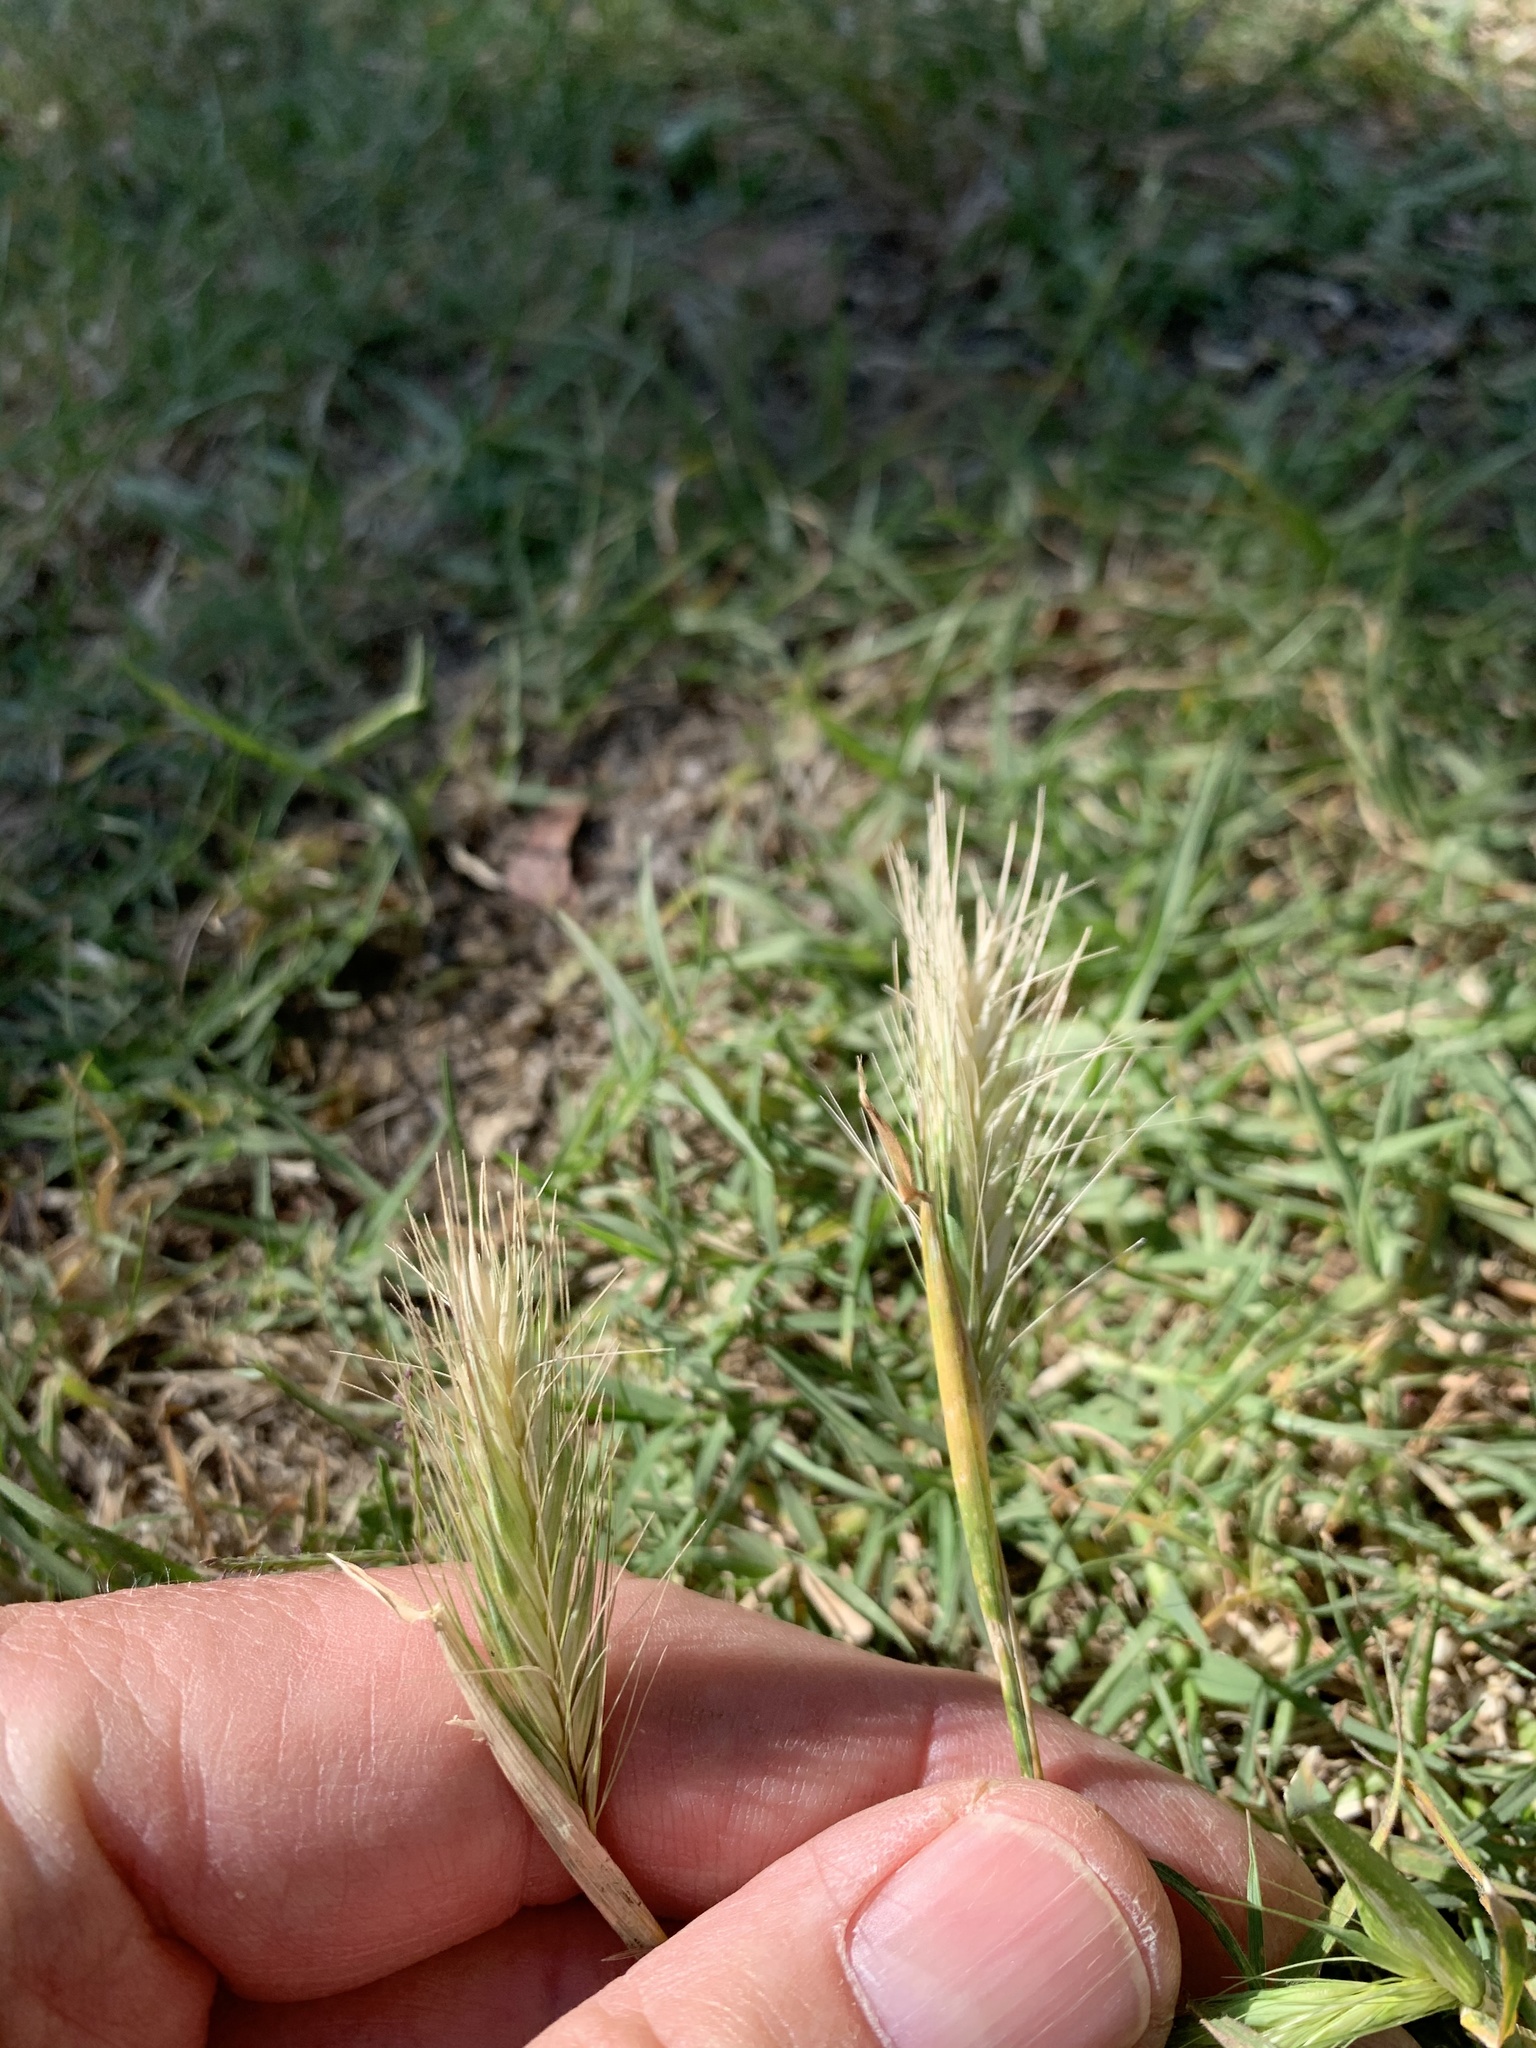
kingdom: Plantae
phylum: Tracheophyta
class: Liliopsida
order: Poales
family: Poaceae
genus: Hordeum
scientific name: Hordeum murinum
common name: Wall barley
